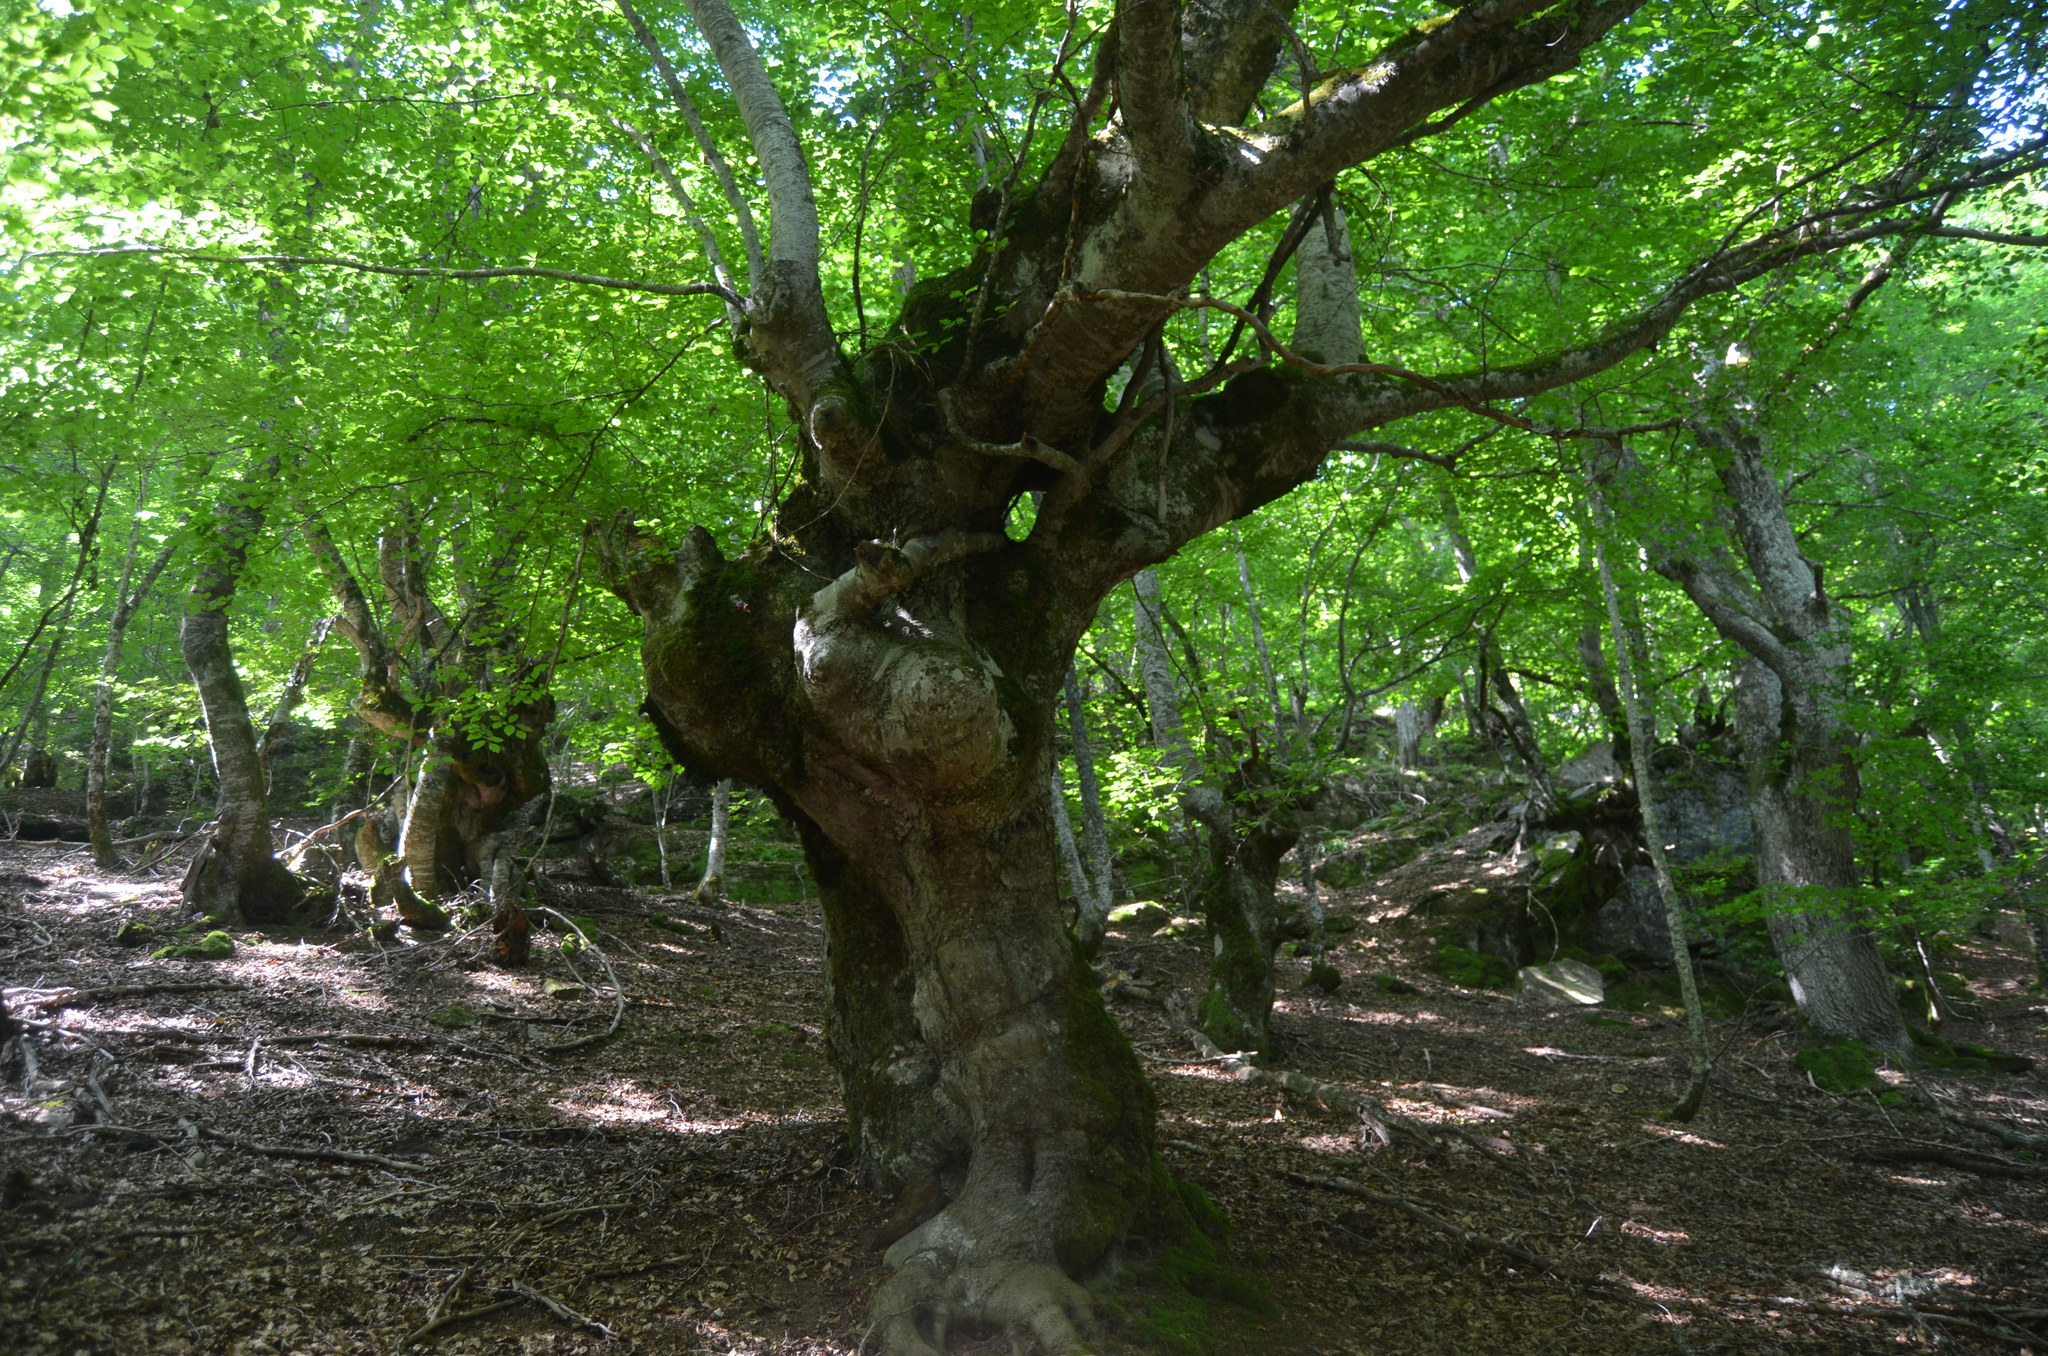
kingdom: Plantae
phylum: Tracheophyta
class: Magnoliopsida
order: Fagales
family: Fagaceae
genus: Fagus
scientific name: Fagus sylvatica
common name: Beech
